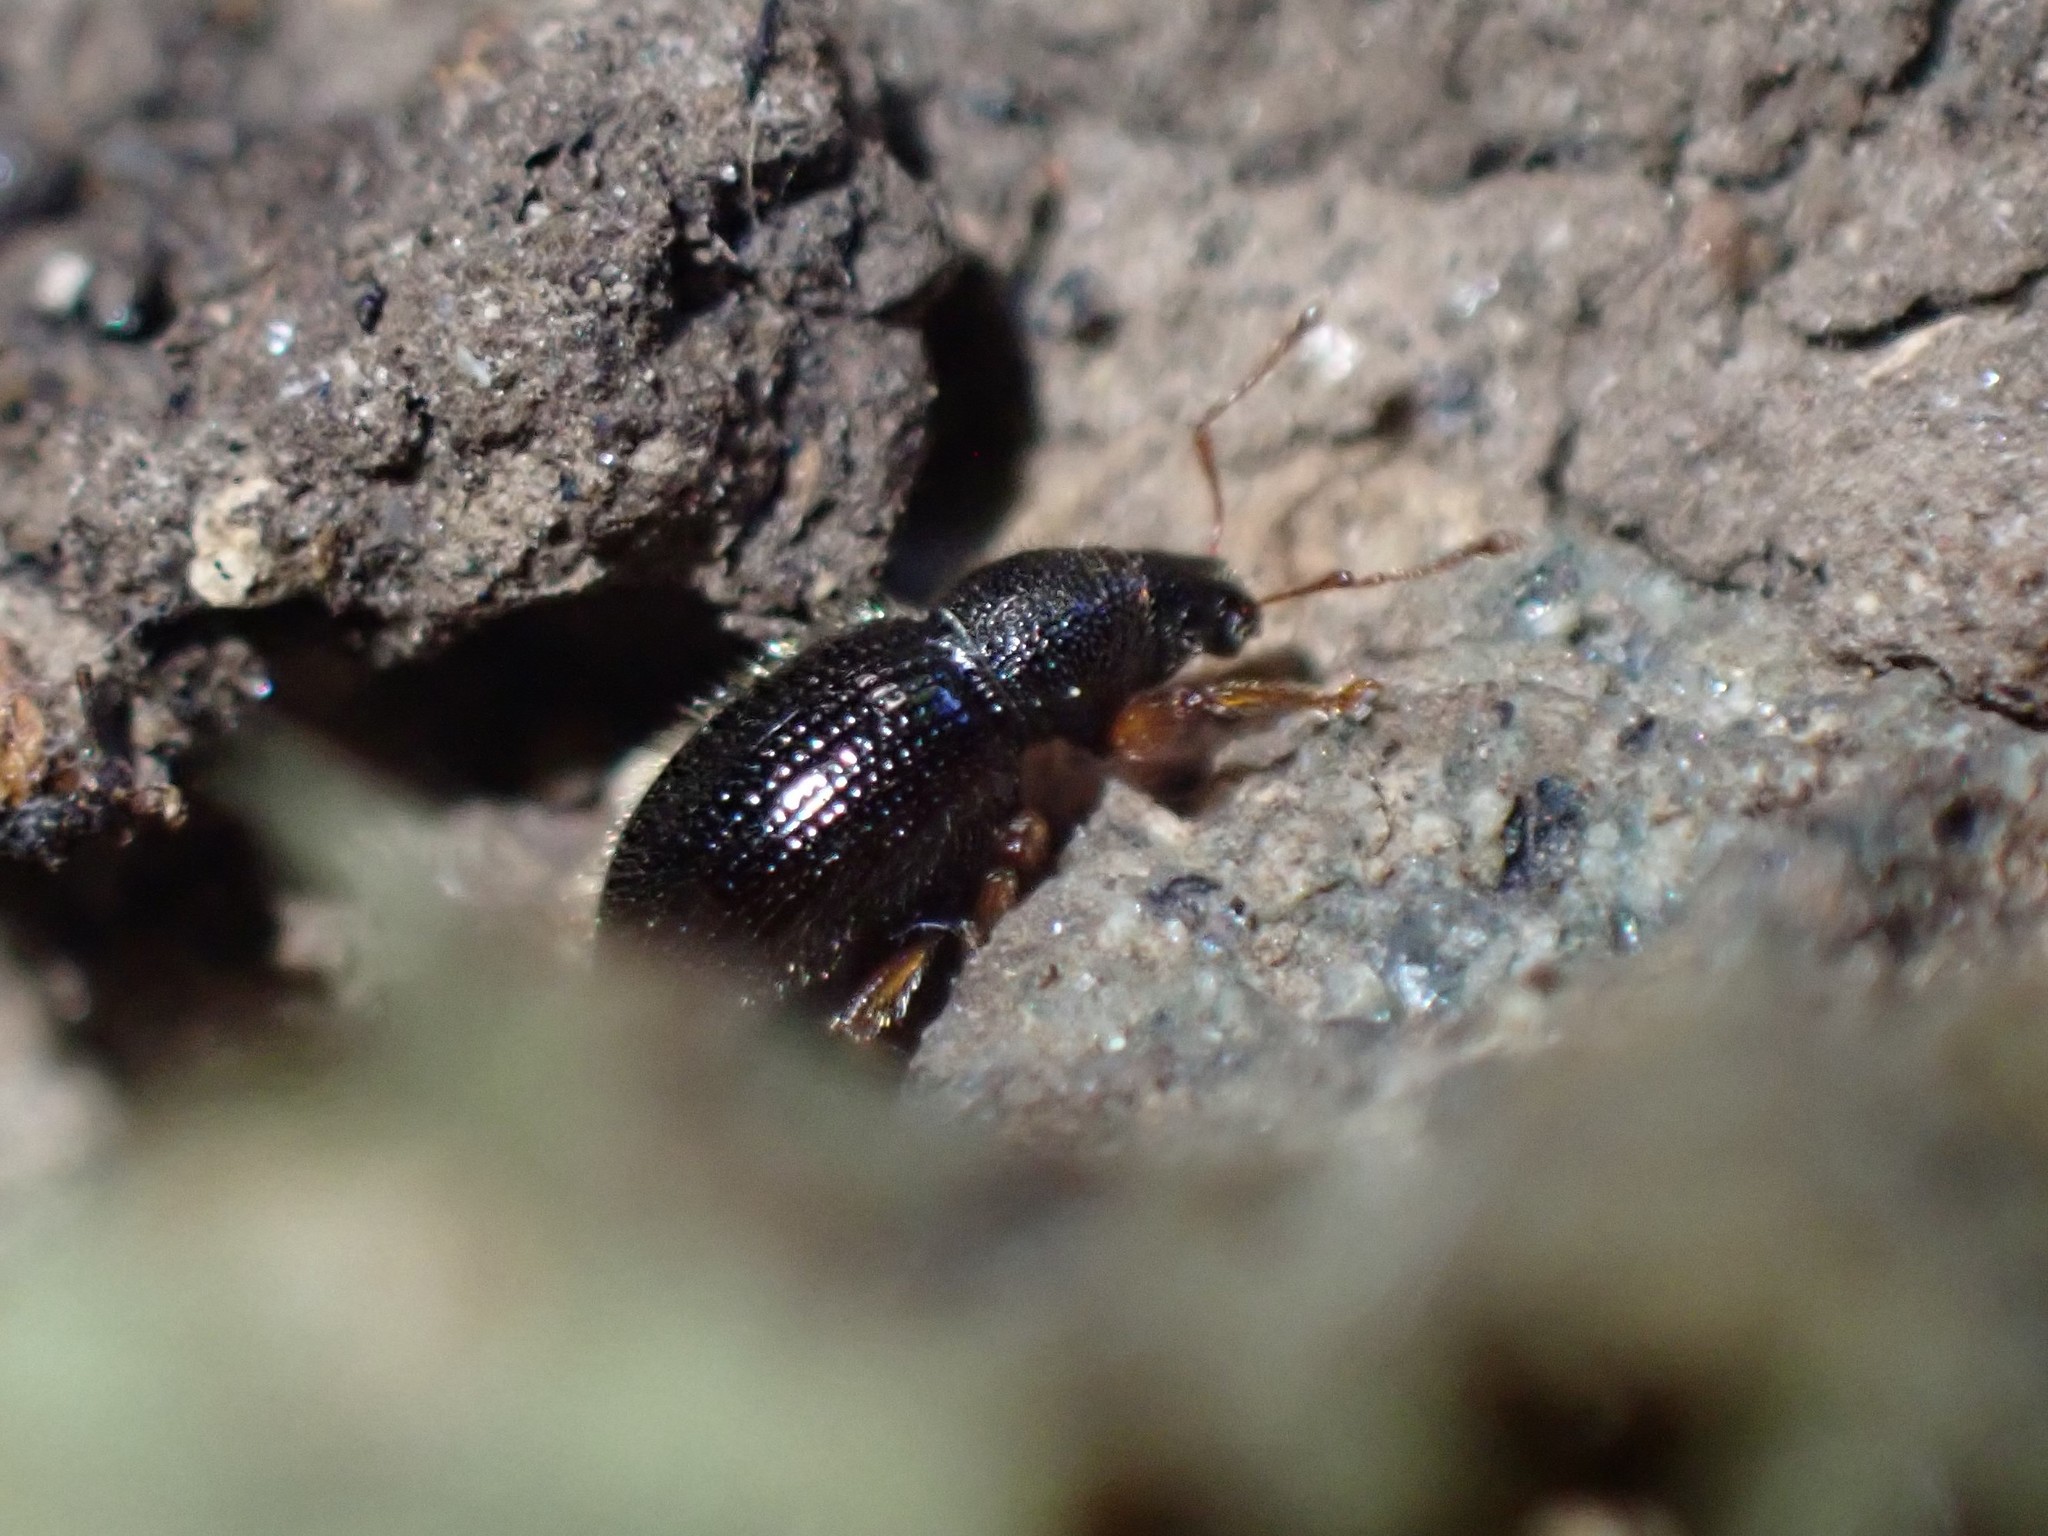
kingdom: Animalia
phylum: Arthropoda
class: Insecta
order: Coleoptera
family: Curculionidae
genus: Exomias
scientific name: Exomias pellucidus
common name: Hairy spider weevil
